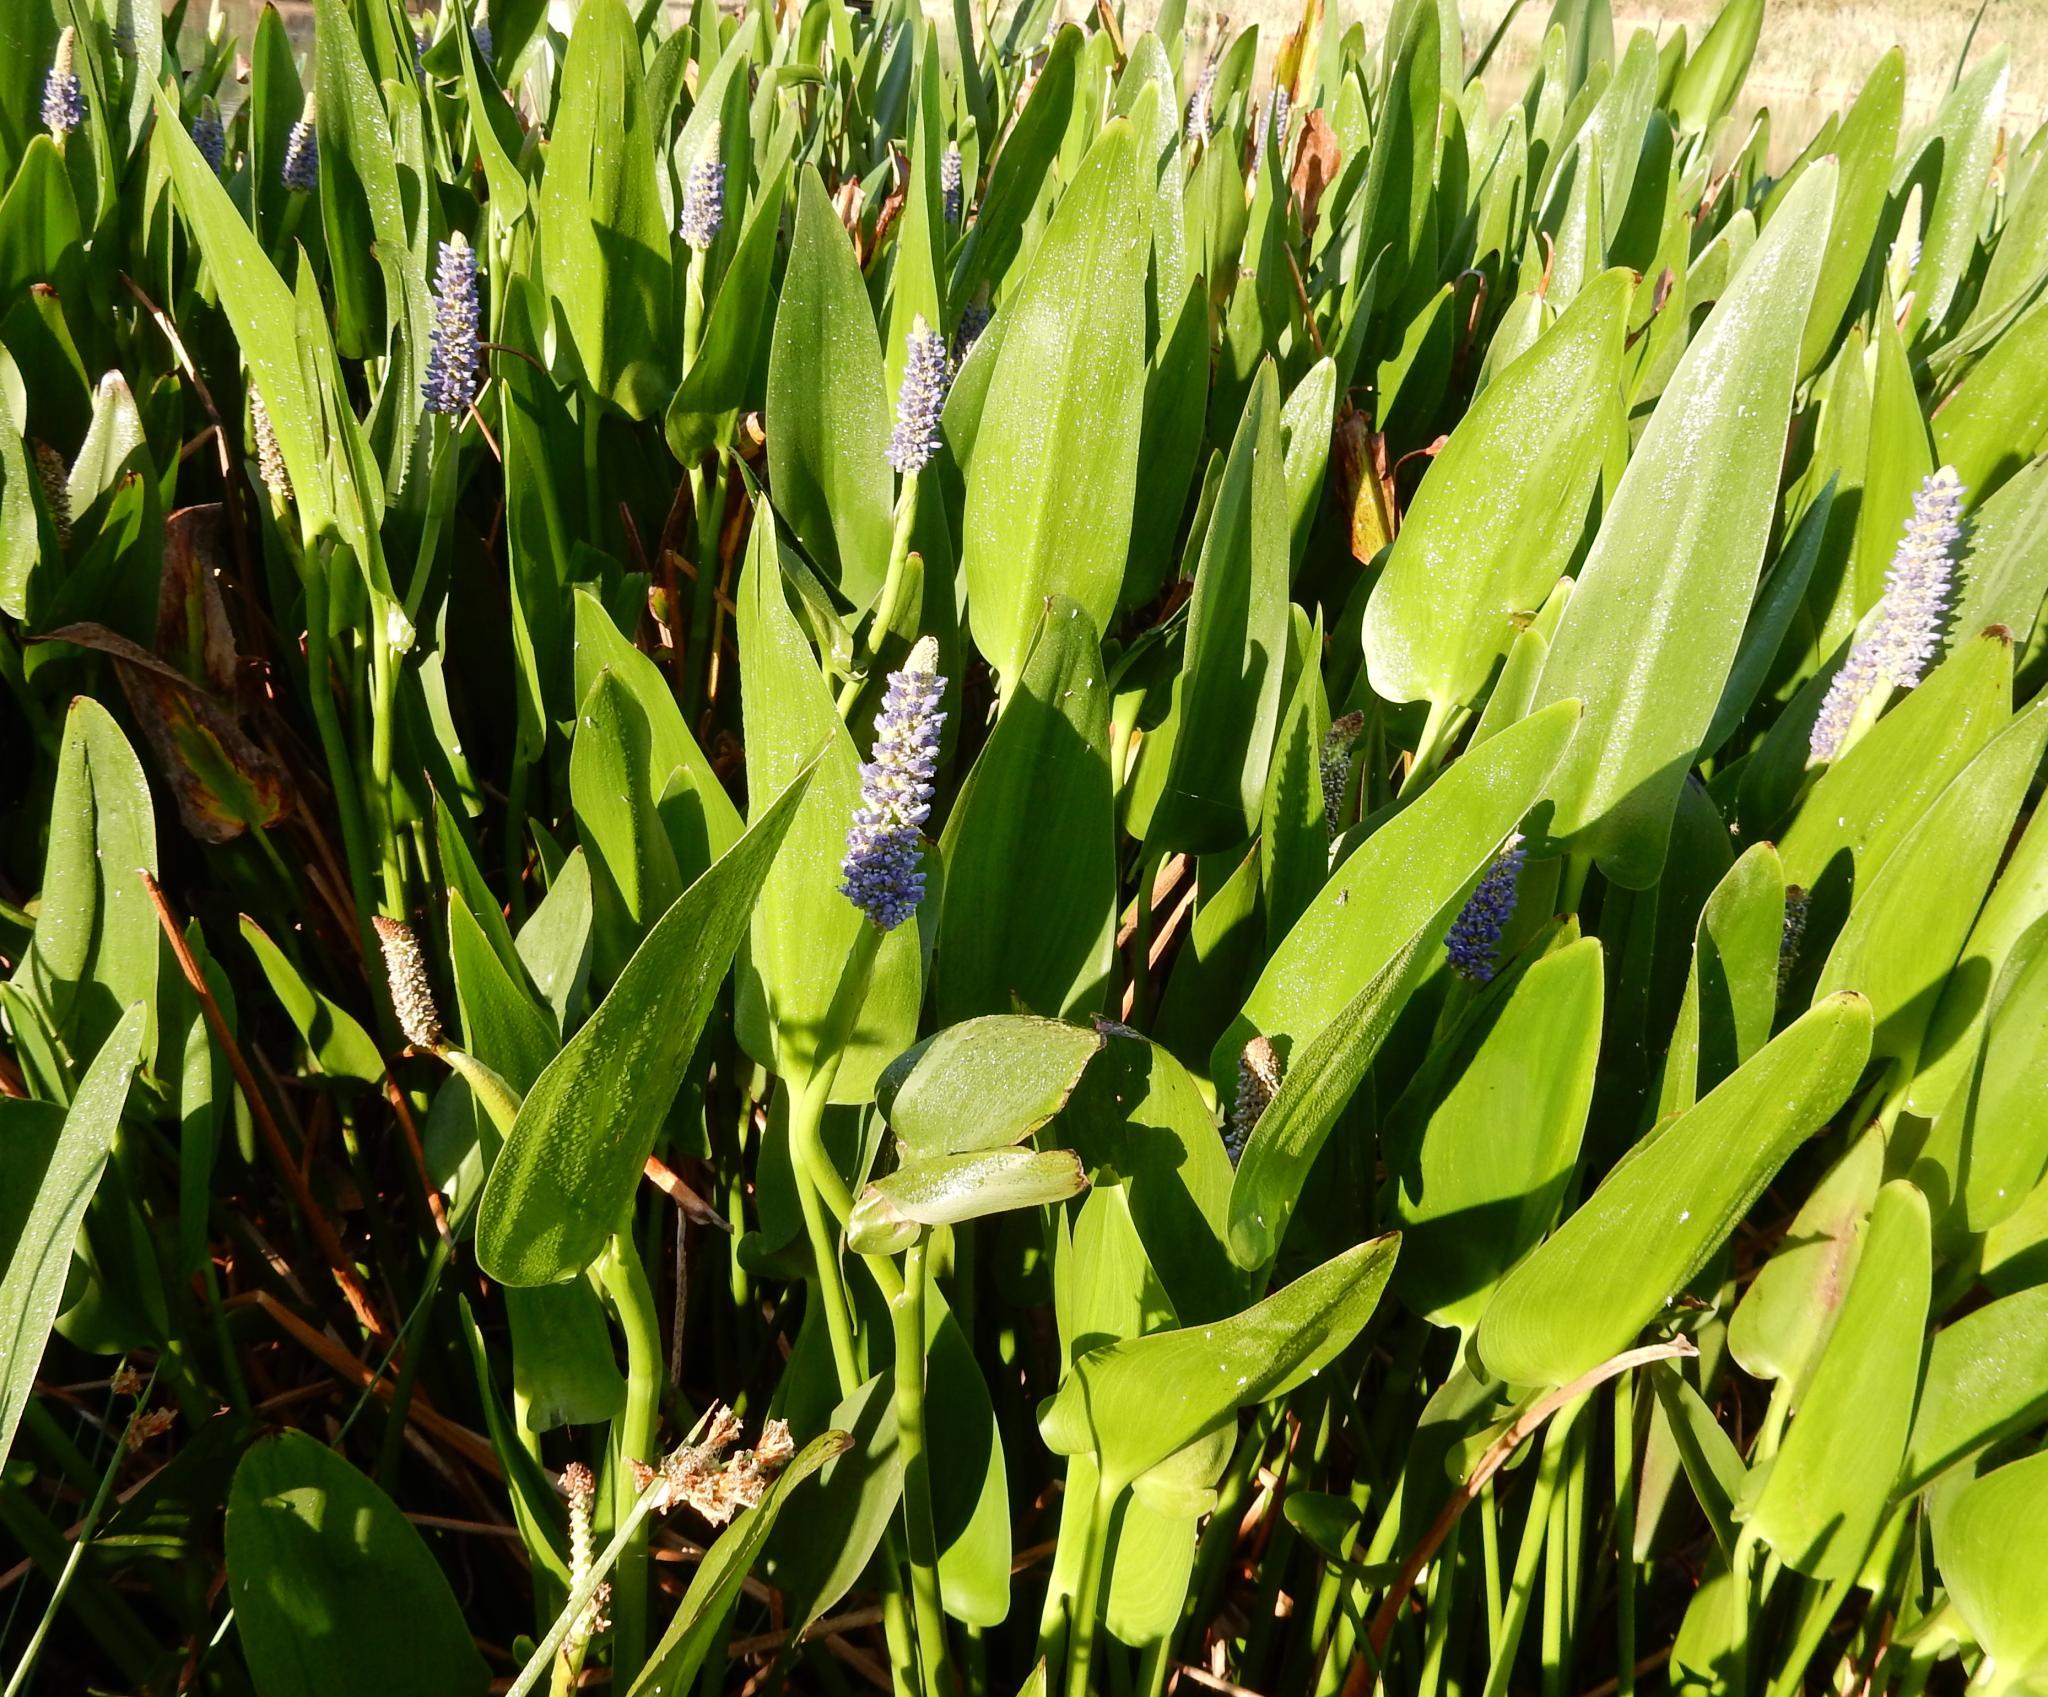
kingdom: Plantae
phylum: Tracheophyta
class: Liliopsida
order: Commelinales
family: Pontederiaceae
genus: Pontederia
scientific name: Pontederia cordata
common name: Pickerelweed
